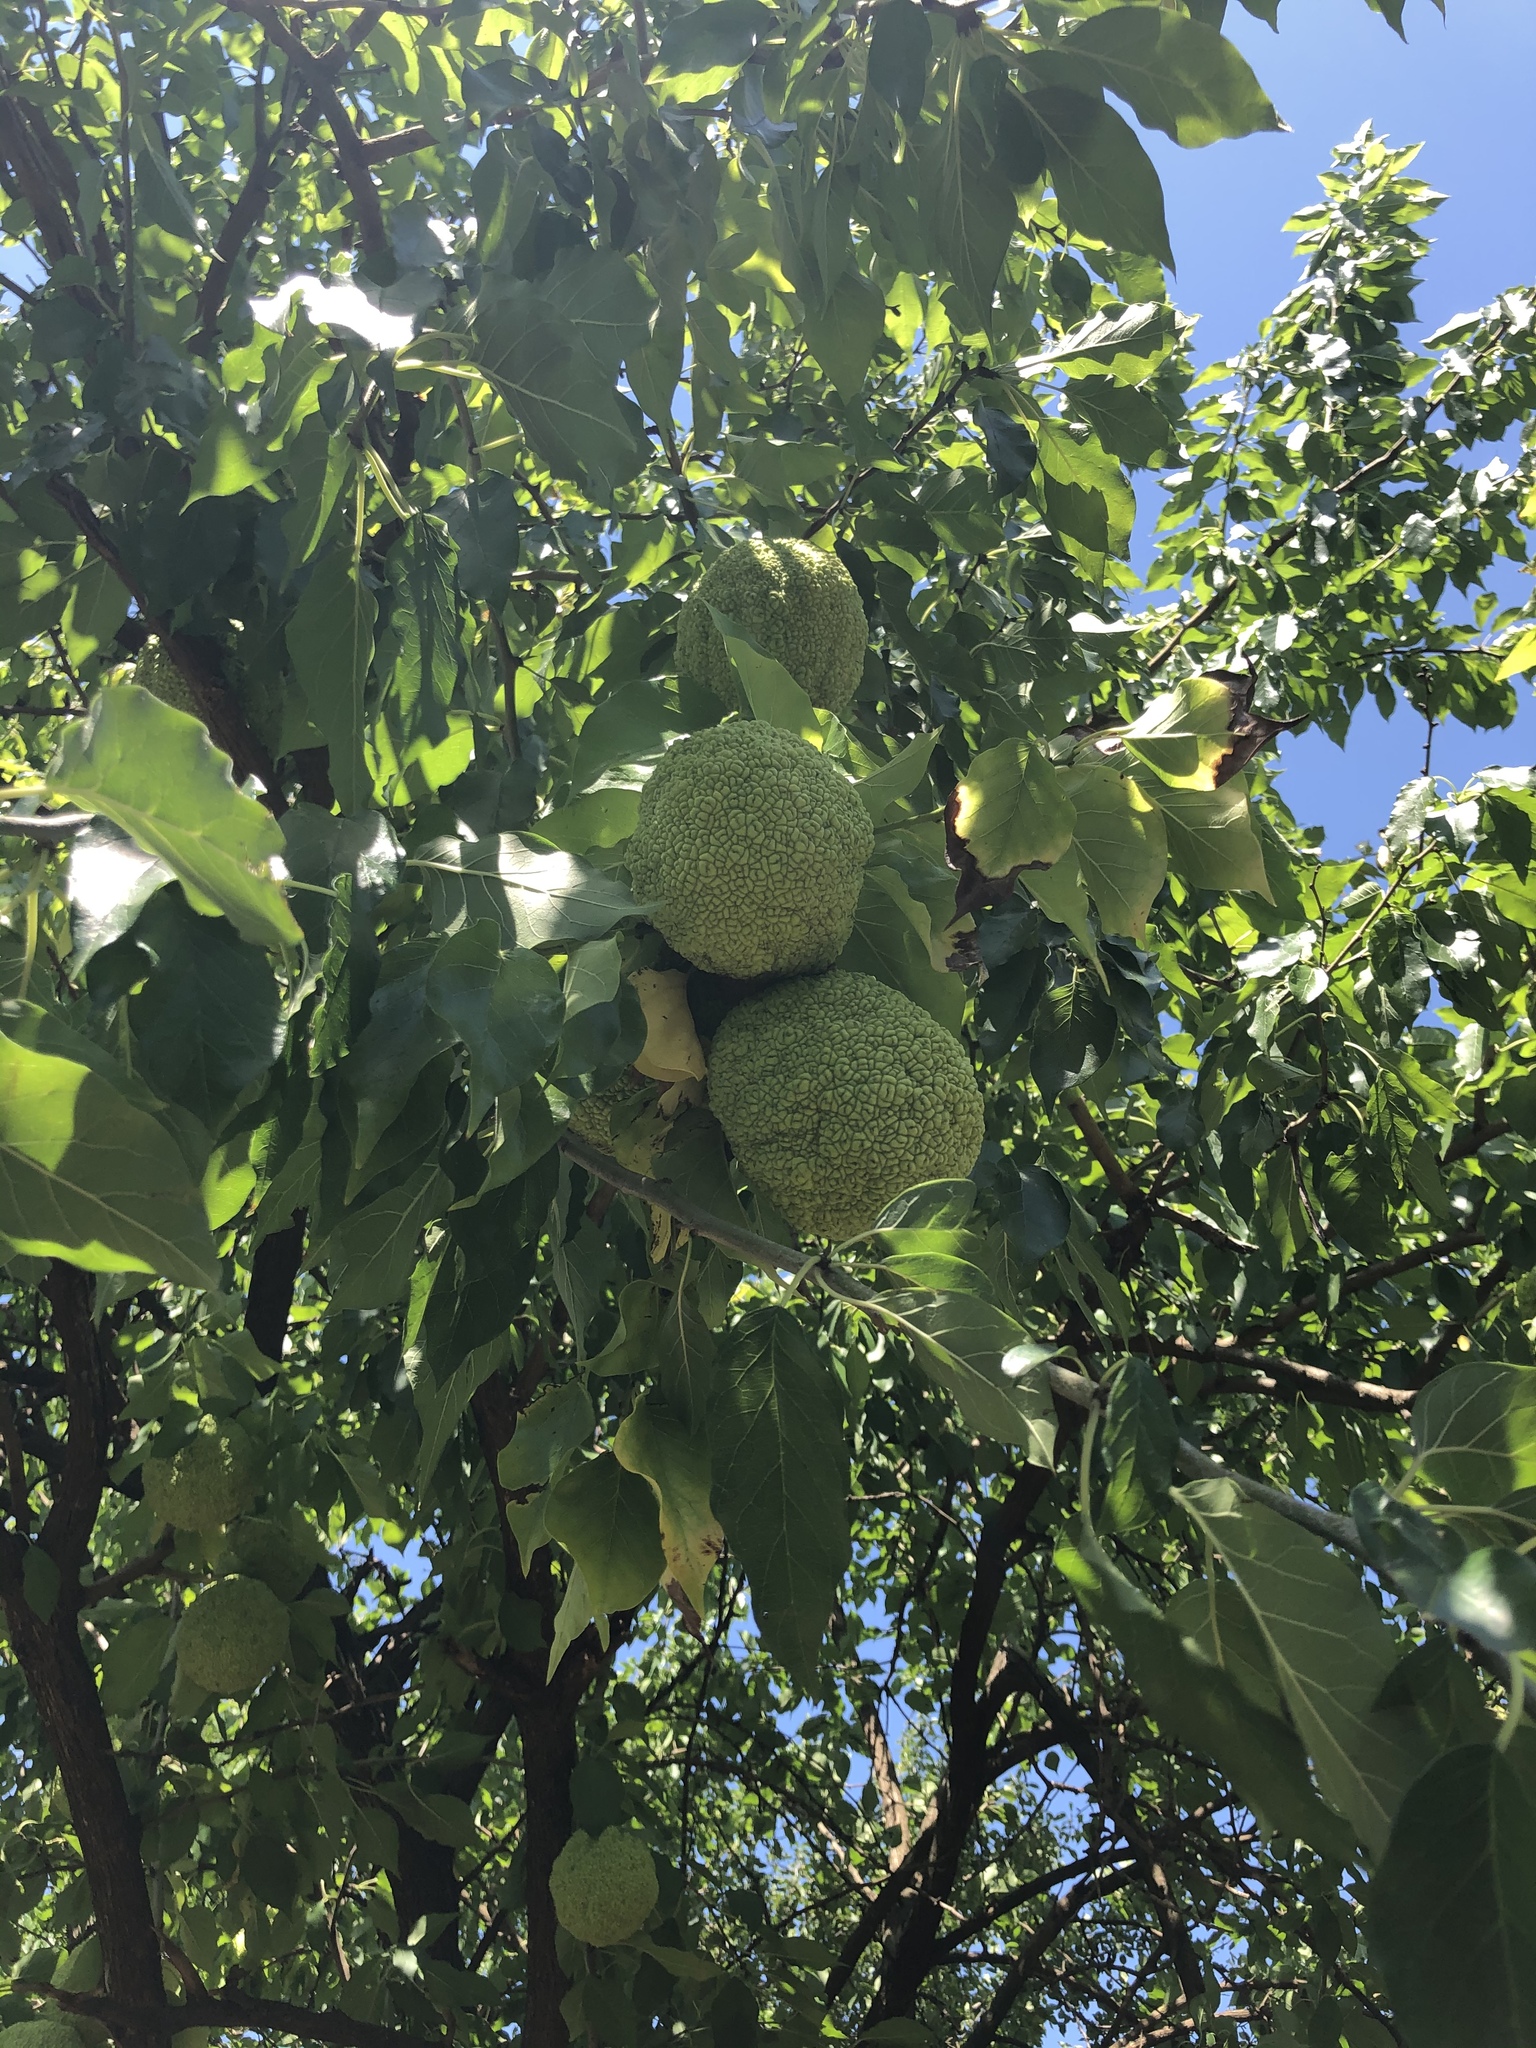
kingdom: Plantae
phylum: Tracheophyta
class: Magnoliopsida
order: Rosales
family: Moraceae
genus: Maclura
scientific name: Maclura pomifera
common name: Osage-orange
